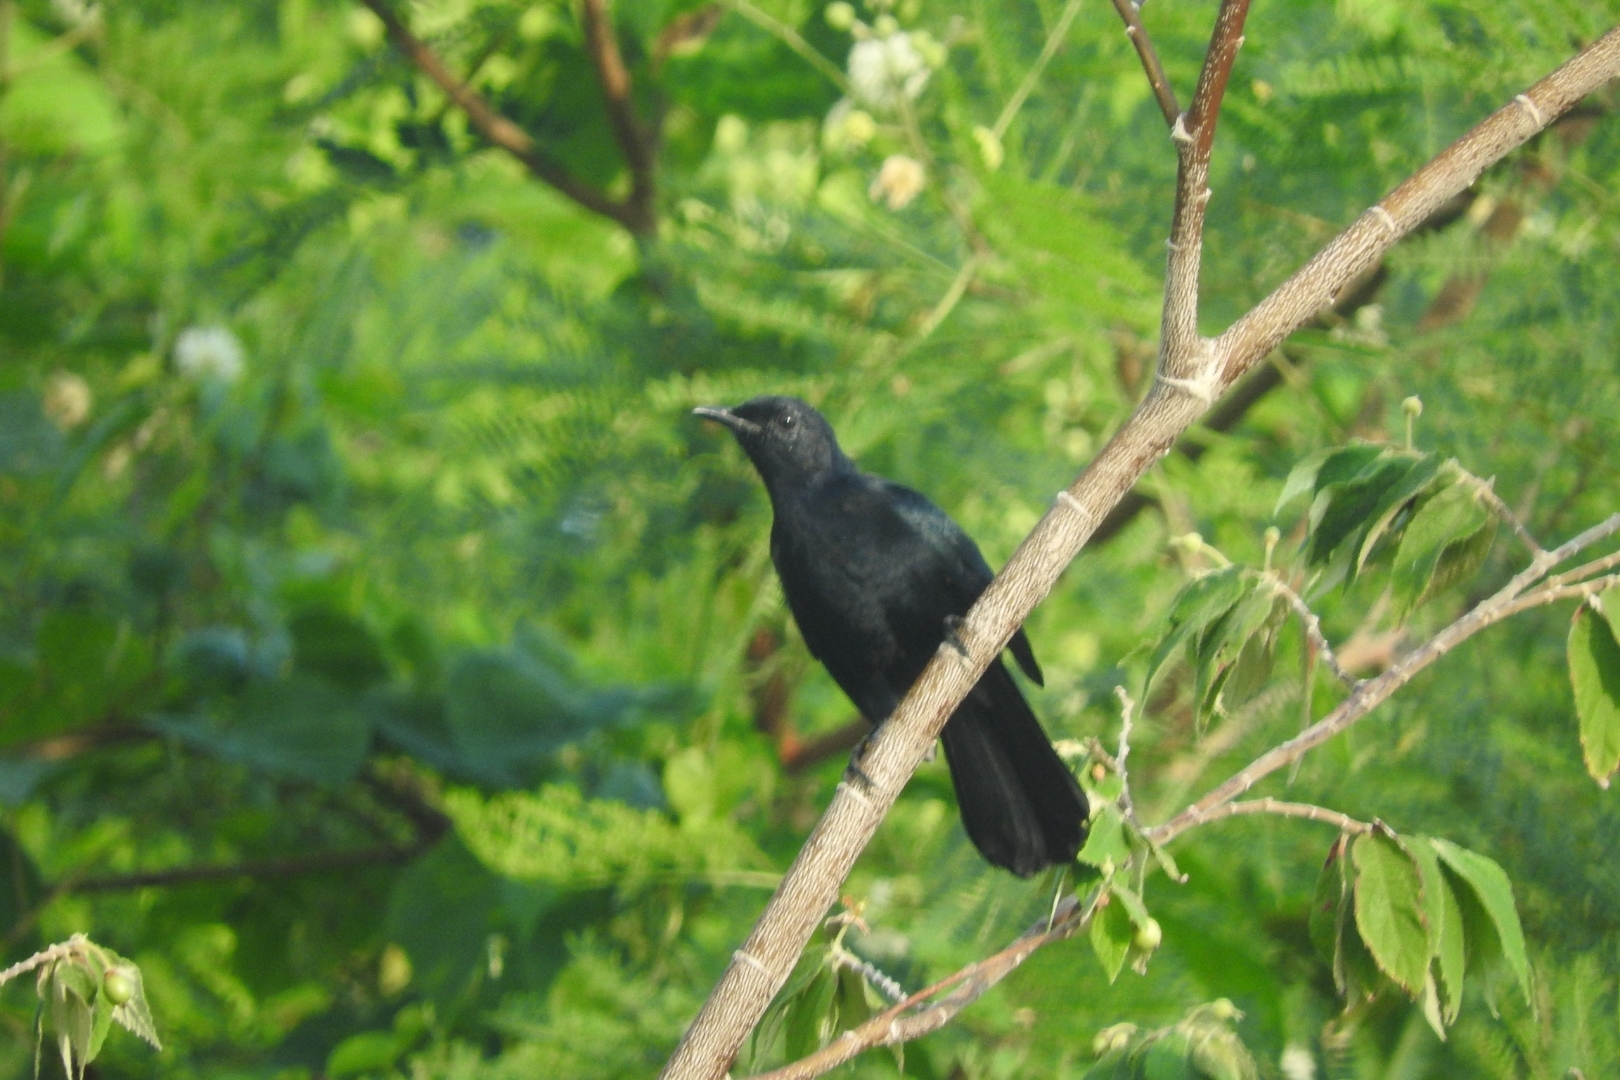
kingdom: Animalia
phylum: Chordata
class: Aves
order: Passeriformes
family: Mimidae
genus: Melanoptila
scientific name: Melanoptila glabrirostris
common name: Black catbird
